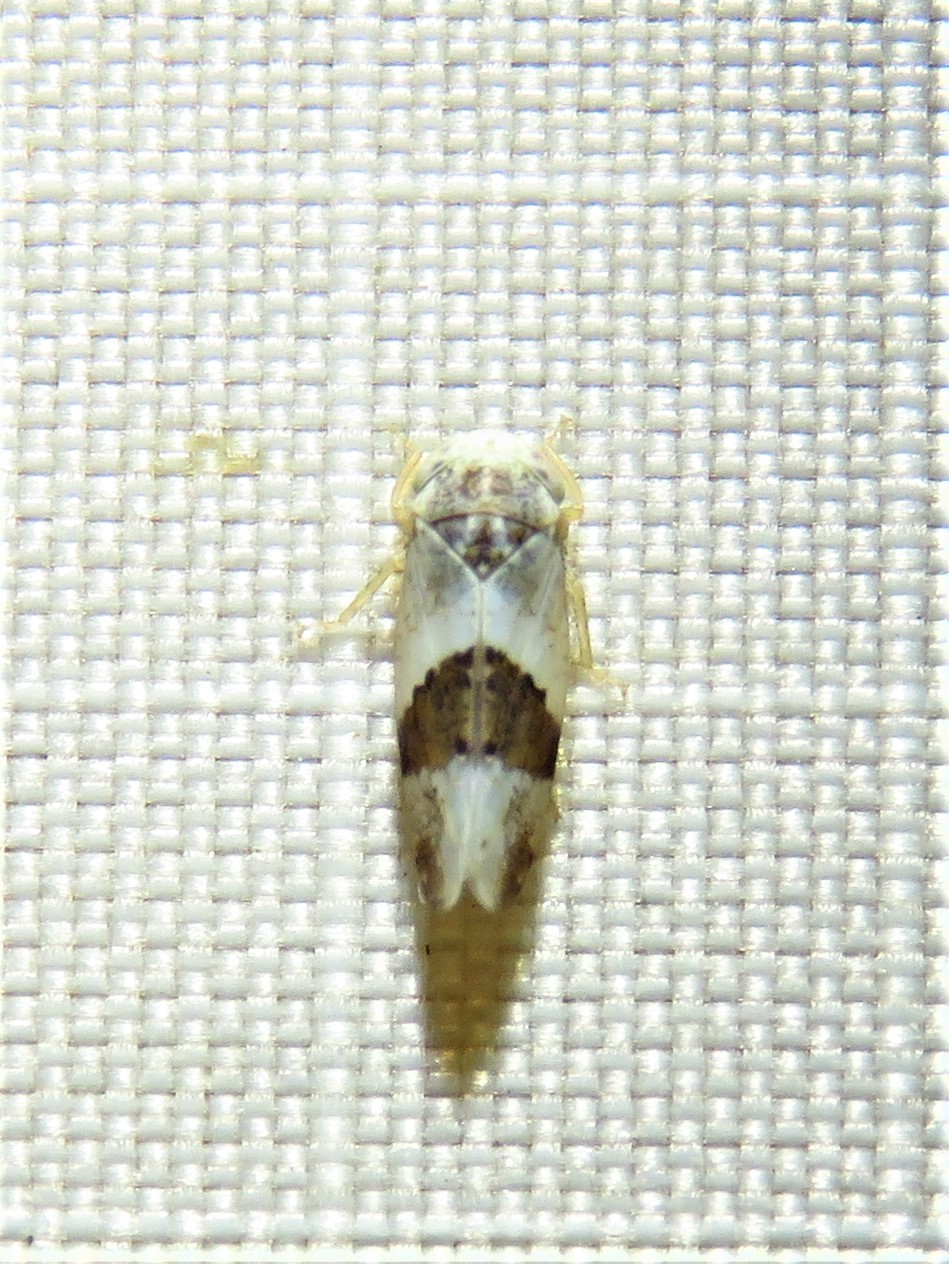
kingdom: Animalia
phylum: Arthropoda
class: Insecta
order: Hemiptera
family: Cicadellidae
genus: Norvellina
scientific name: Norvellina seminuda
